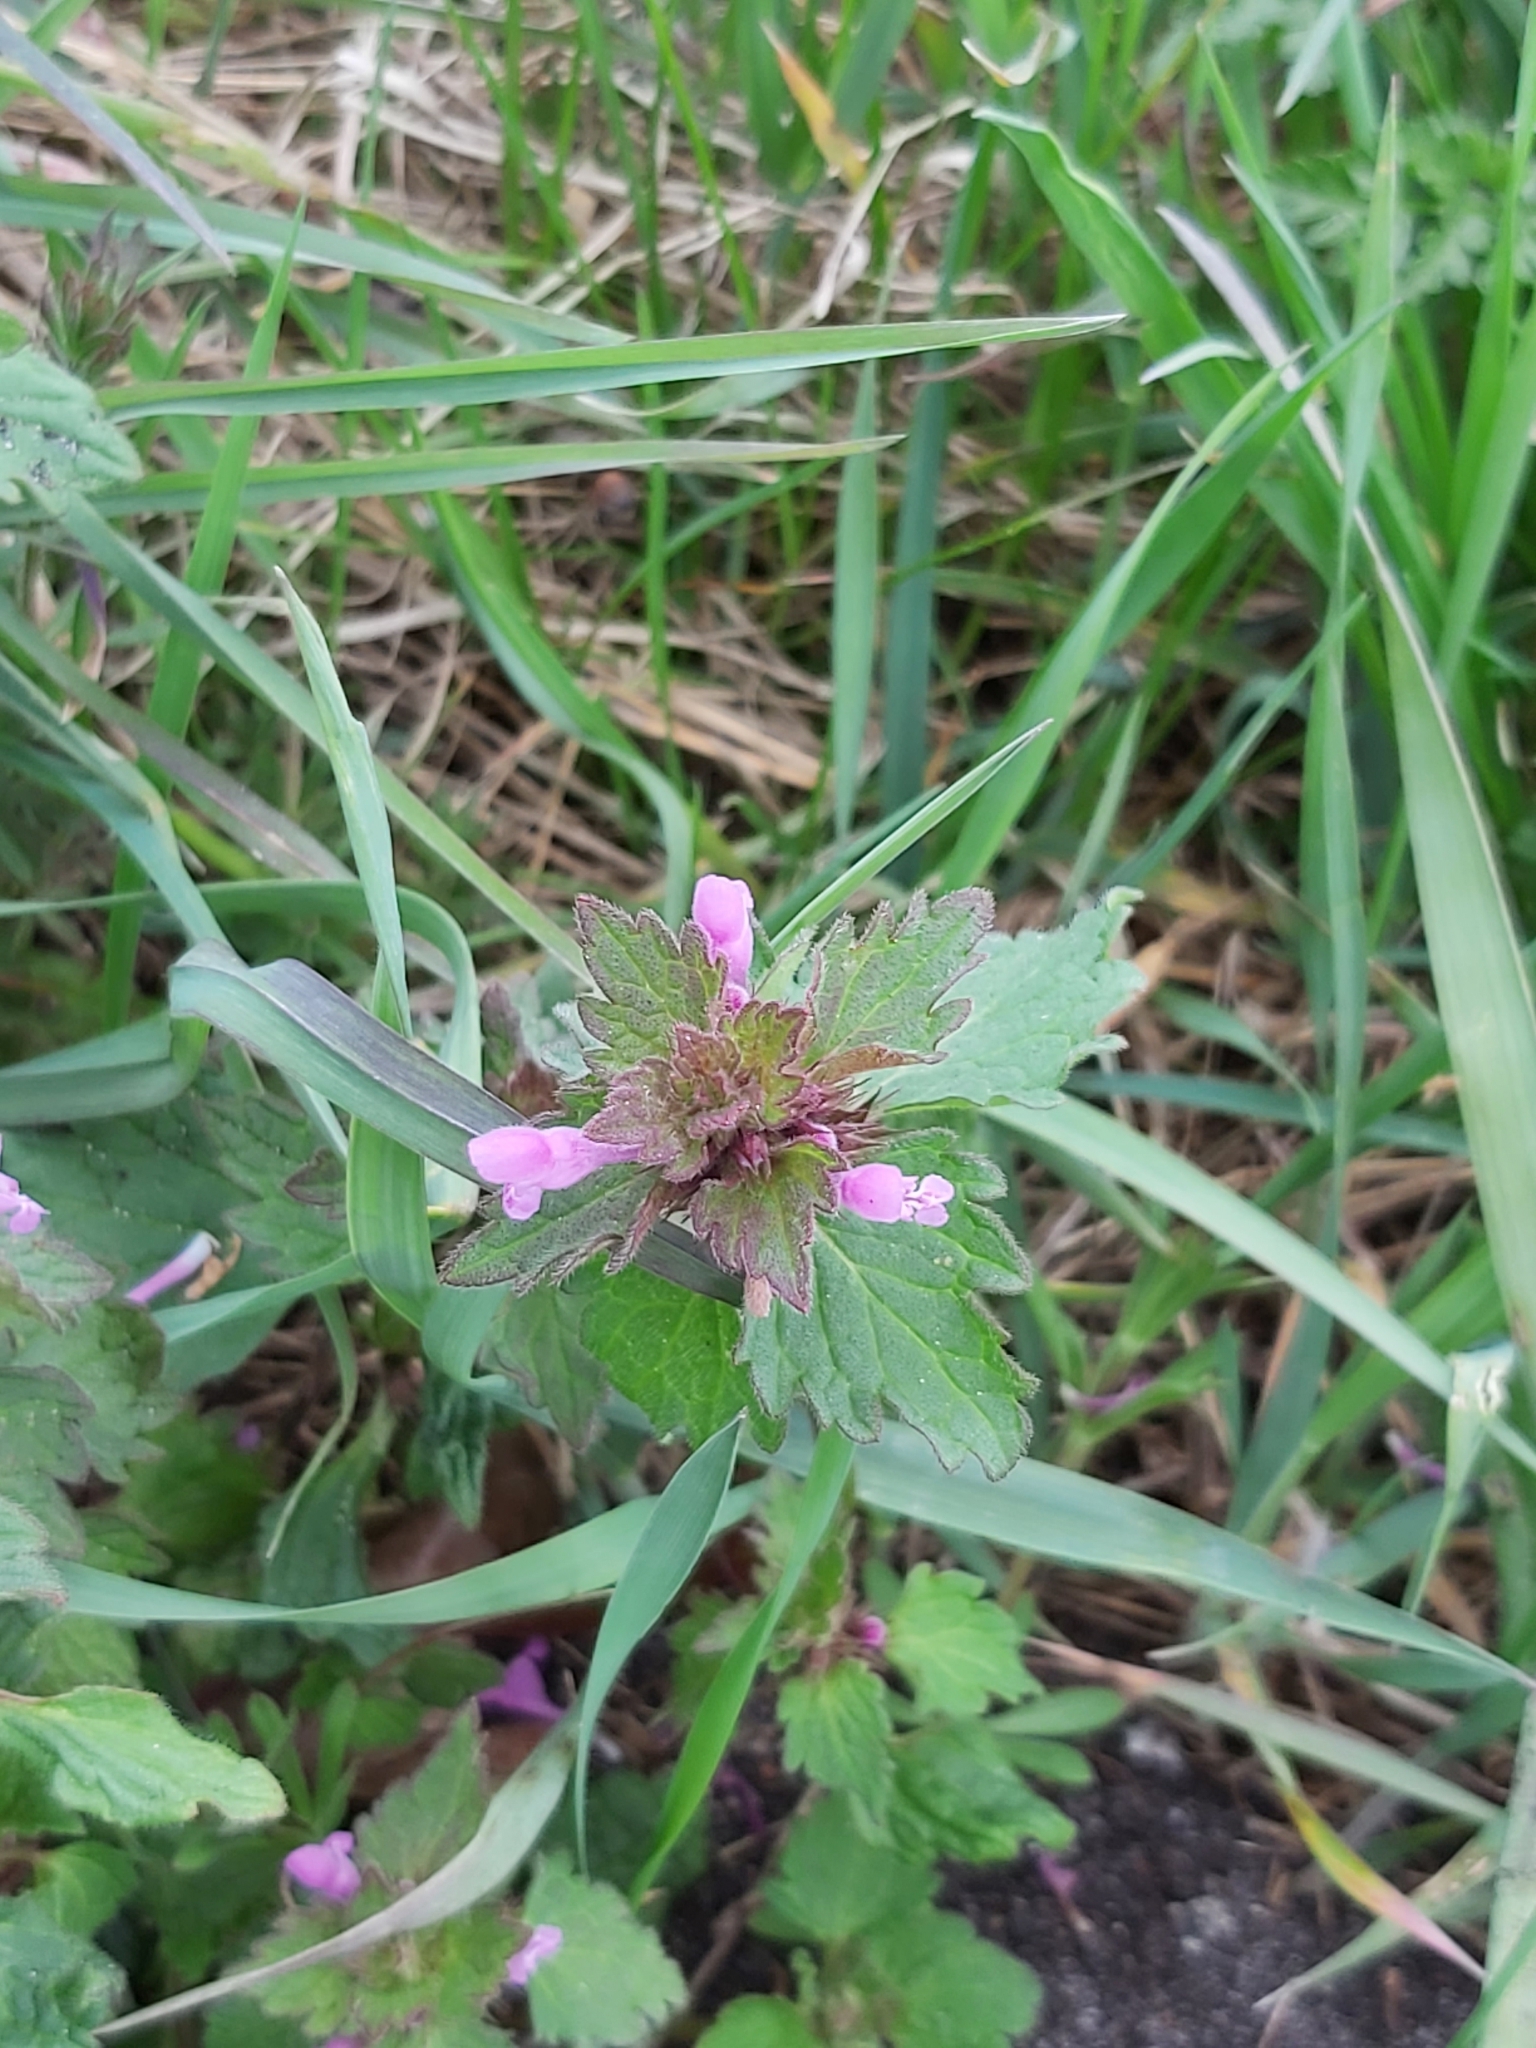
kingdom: Plantae
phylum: Tracheophyta
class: Magnoliopsida
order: Lamiales
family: Lamiaceae
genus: Lamium
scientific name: Lamium hybridum
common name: Cut-leaved dead-nettle
